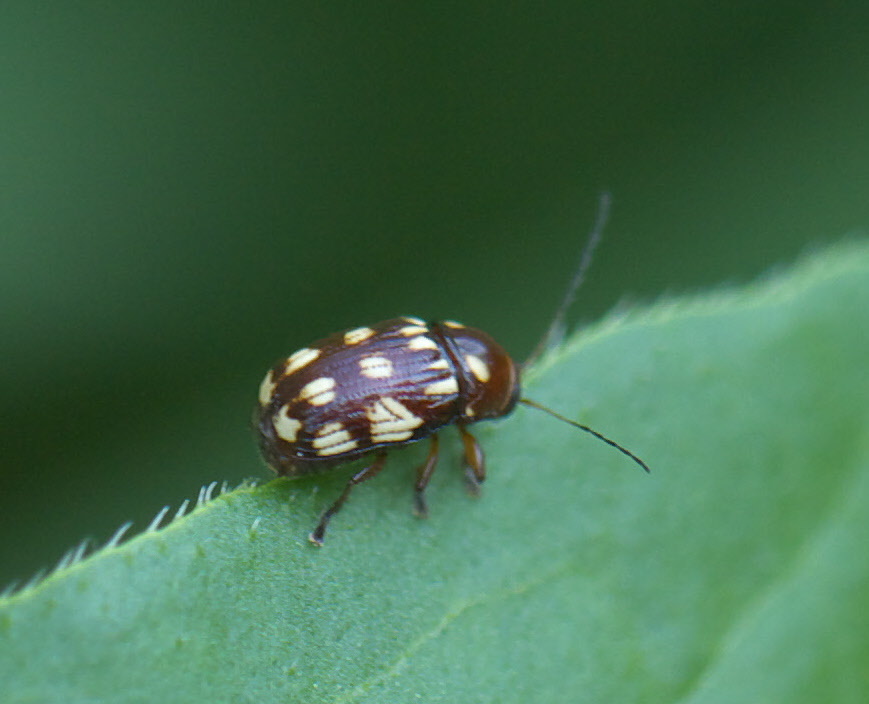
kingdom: Animalia
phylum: Arthropoda
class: Insecta
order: Coleoptera
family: Chrysomelidae
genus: Bassareus
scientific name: Bassareus brunnipes
